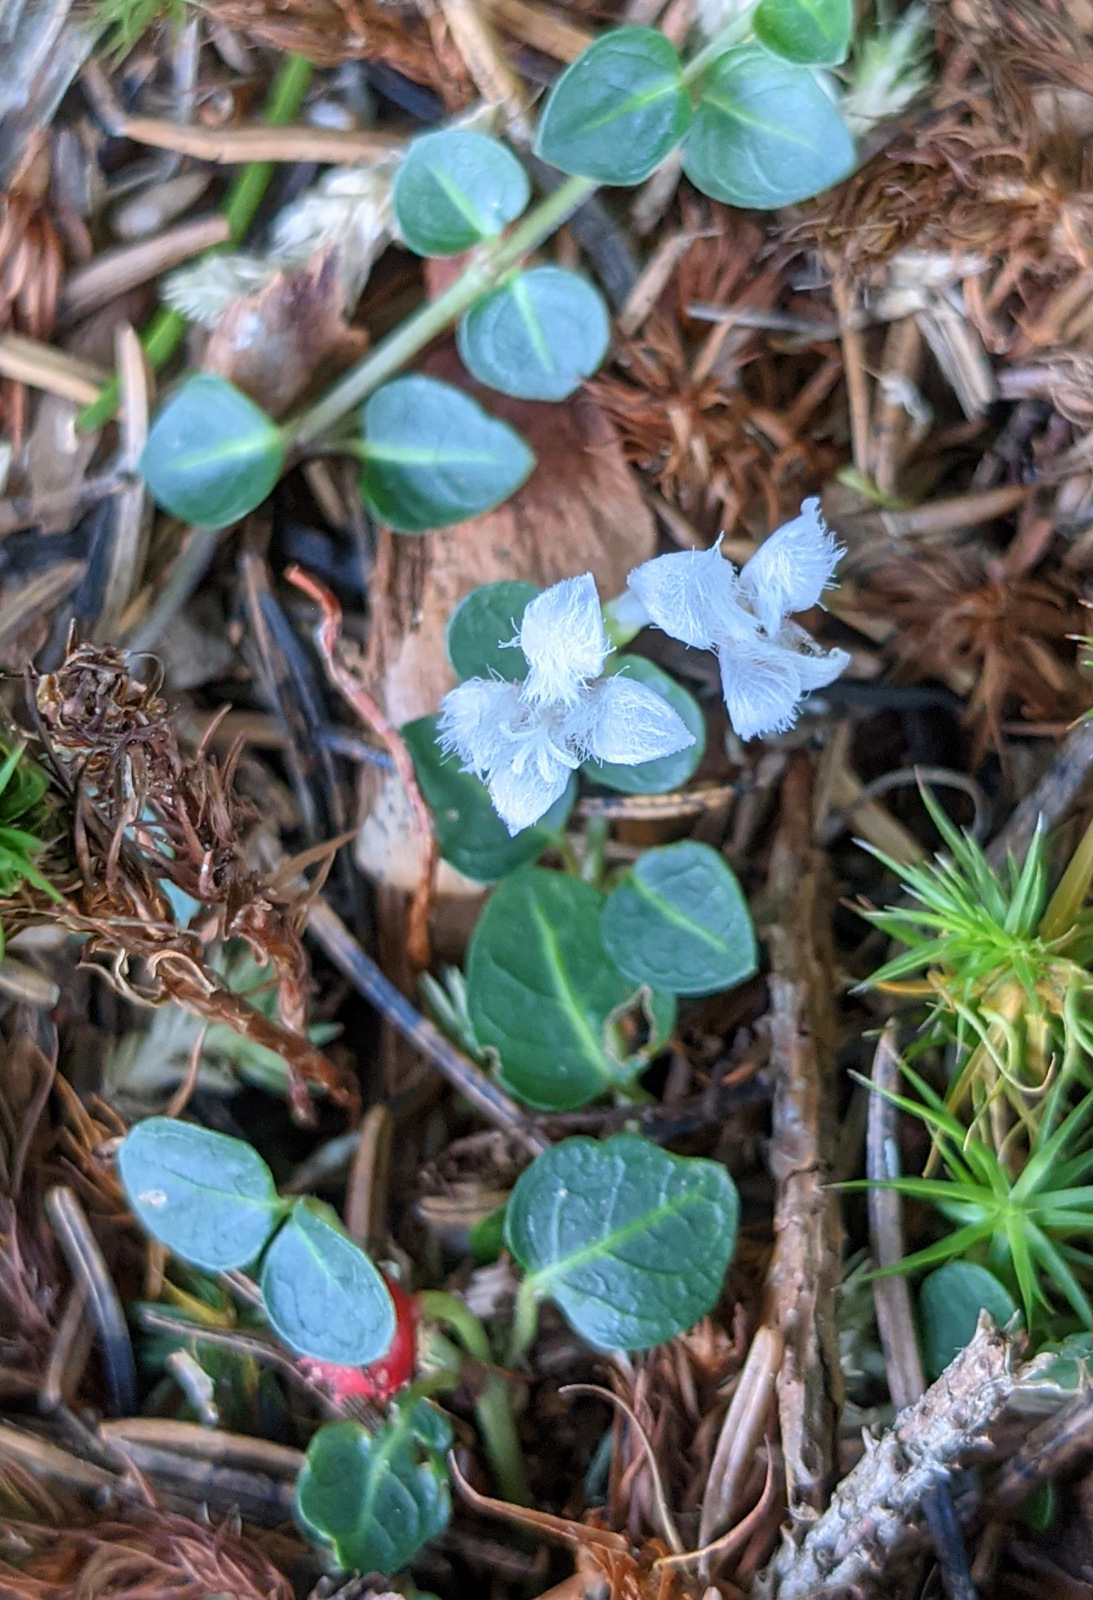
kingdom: Plantae
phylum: Tracheophyta
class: Magnoliopsida
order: Gentianales
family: Rubiaceae
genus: Mitchella
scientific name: Mitchella repens
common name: Partridge-berry
